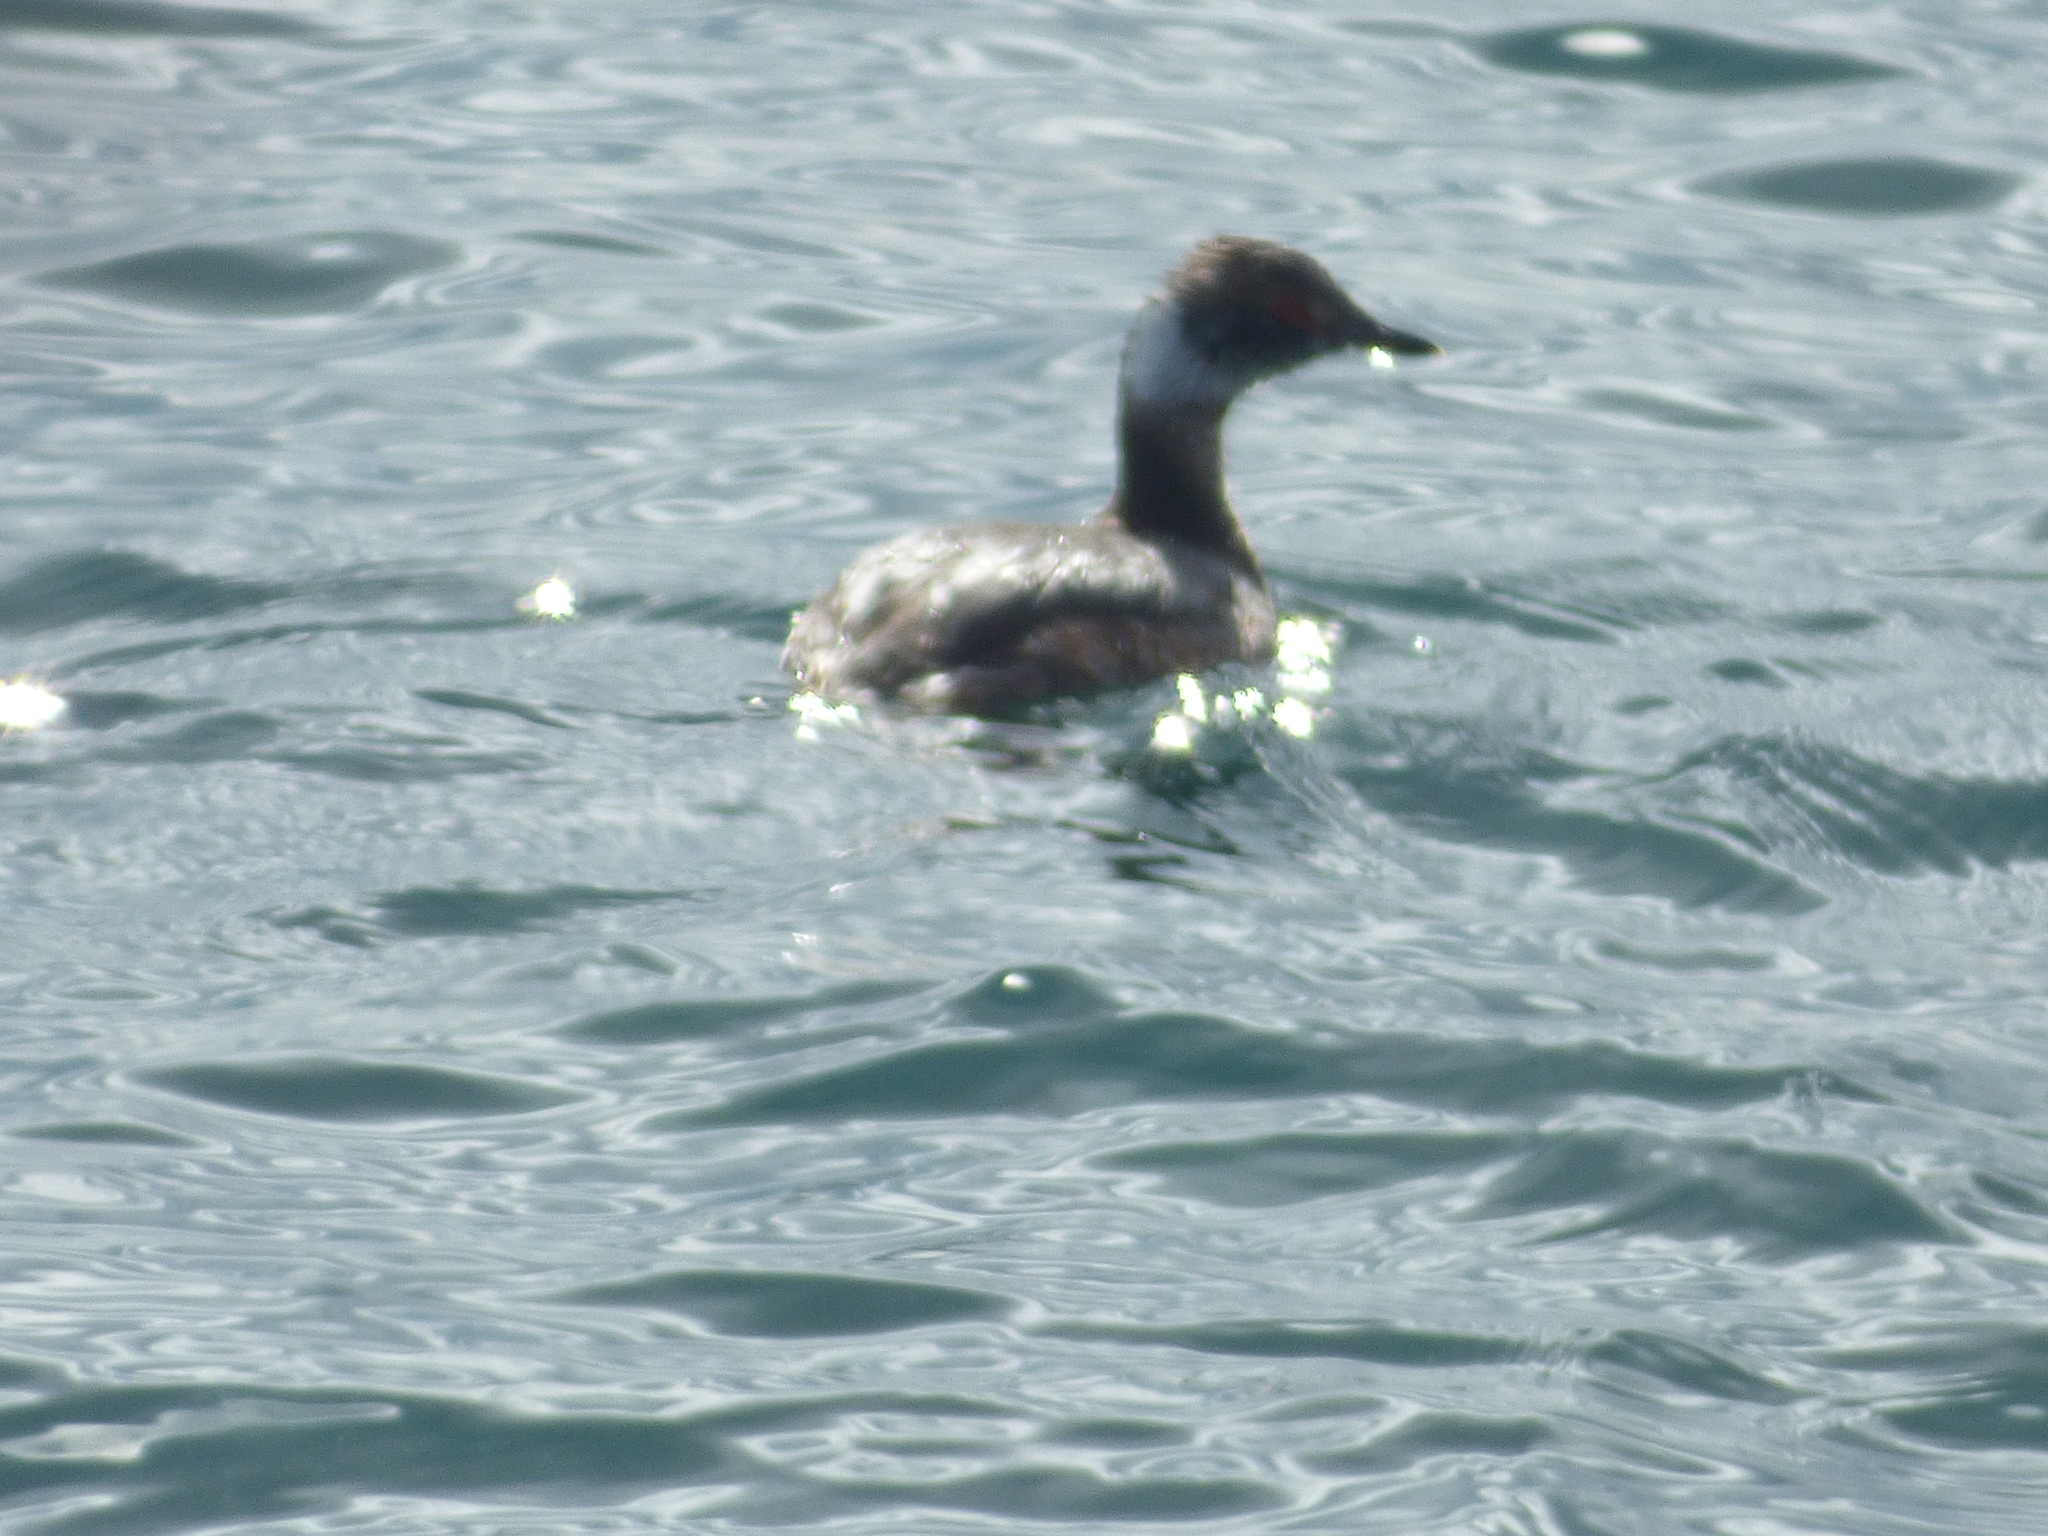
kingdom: Animalia
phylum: Chordata
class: Aves
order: Podicipediformes
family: Podicipedidae
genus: Podiceps
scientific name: Podiceps auritus
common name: Horned grebe
